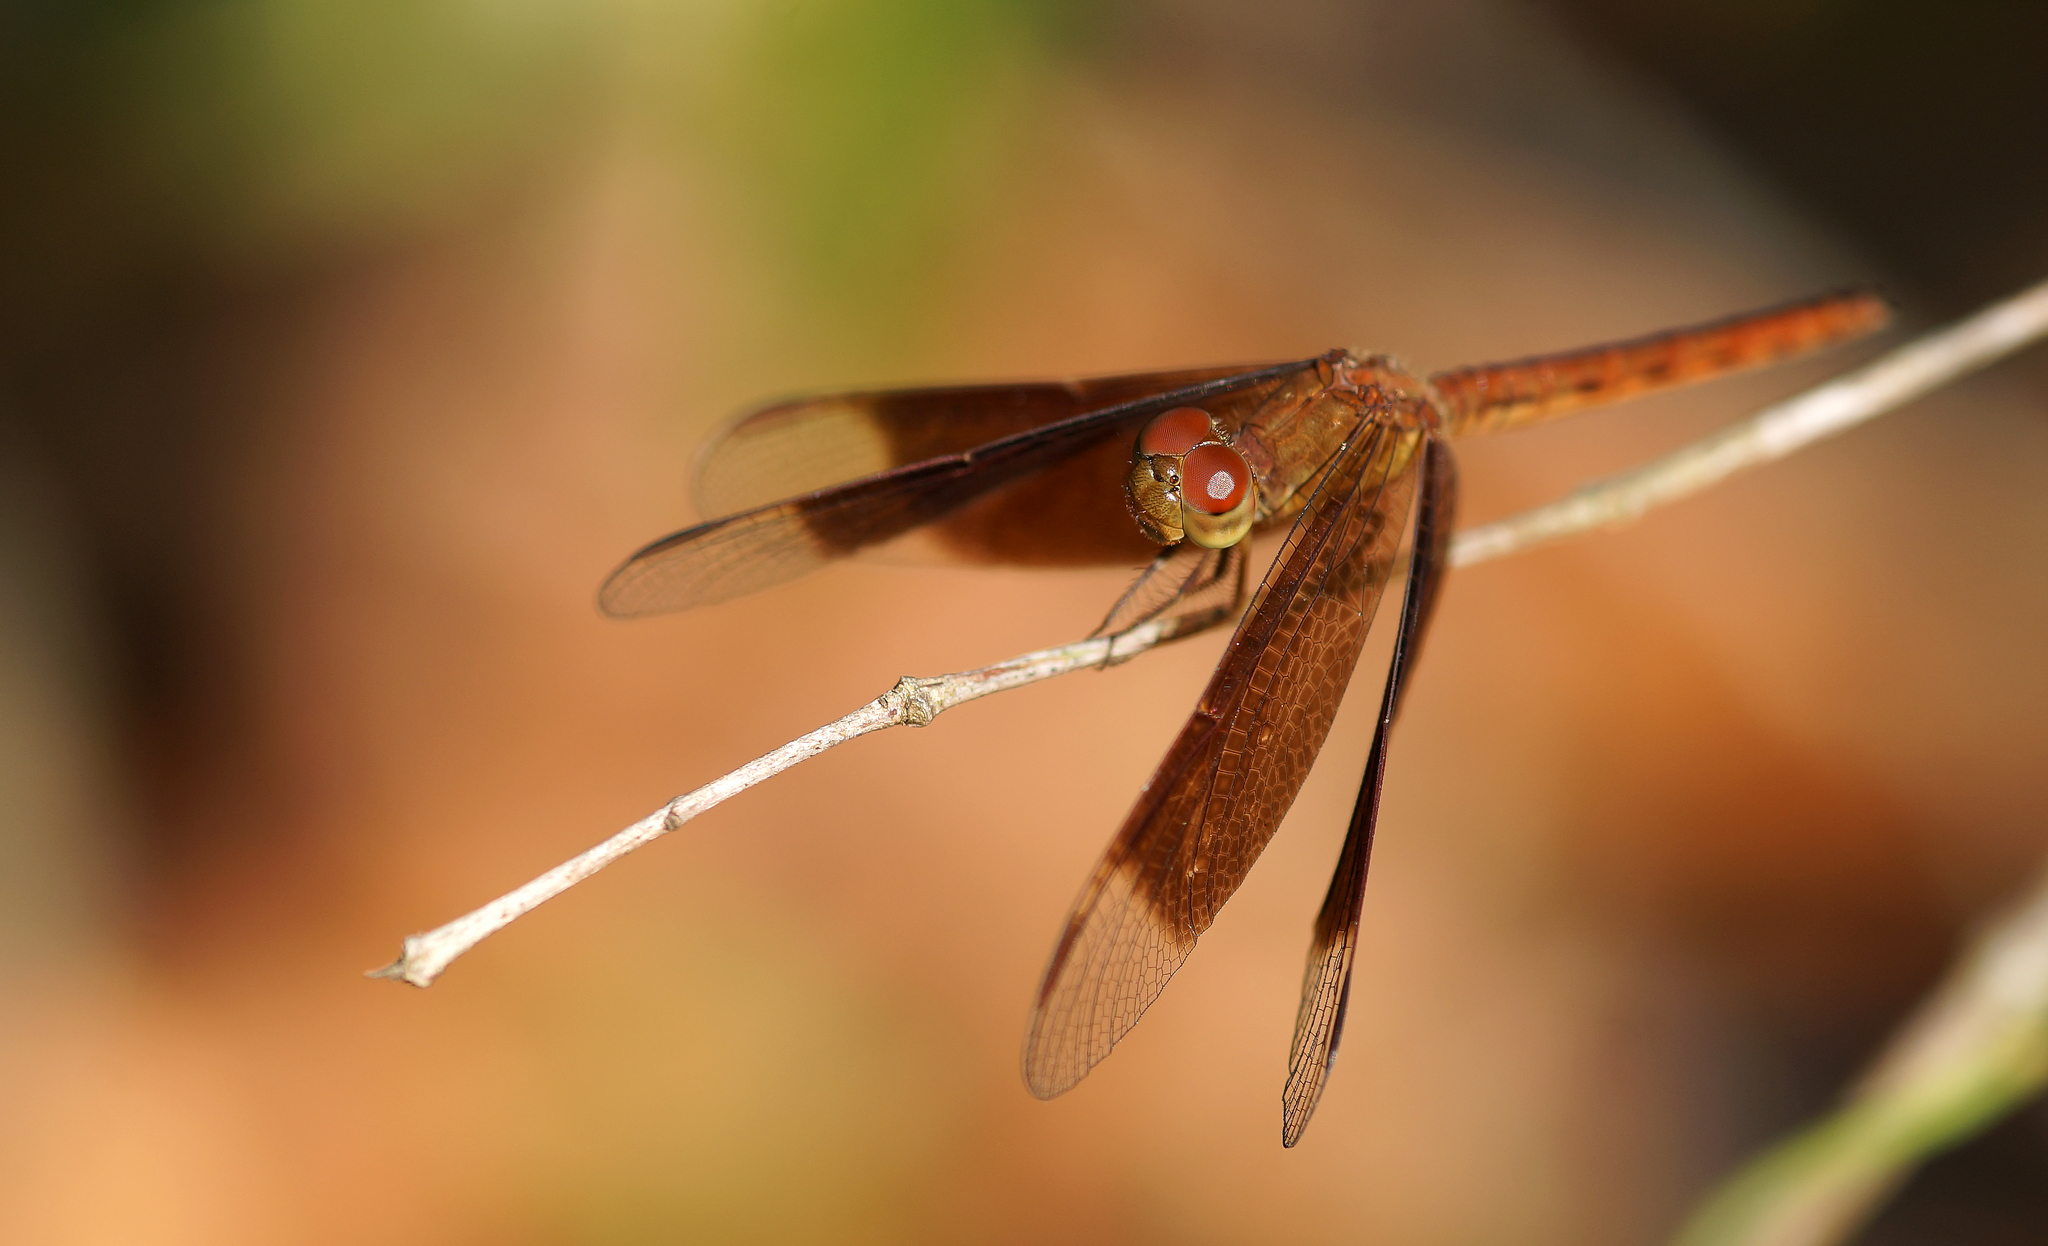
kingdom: Animalia
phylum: Arthropoda
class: Insecta
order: Odonata
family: Libellulidae
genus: Neurothemis
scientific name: Neurothemis fluctuans
